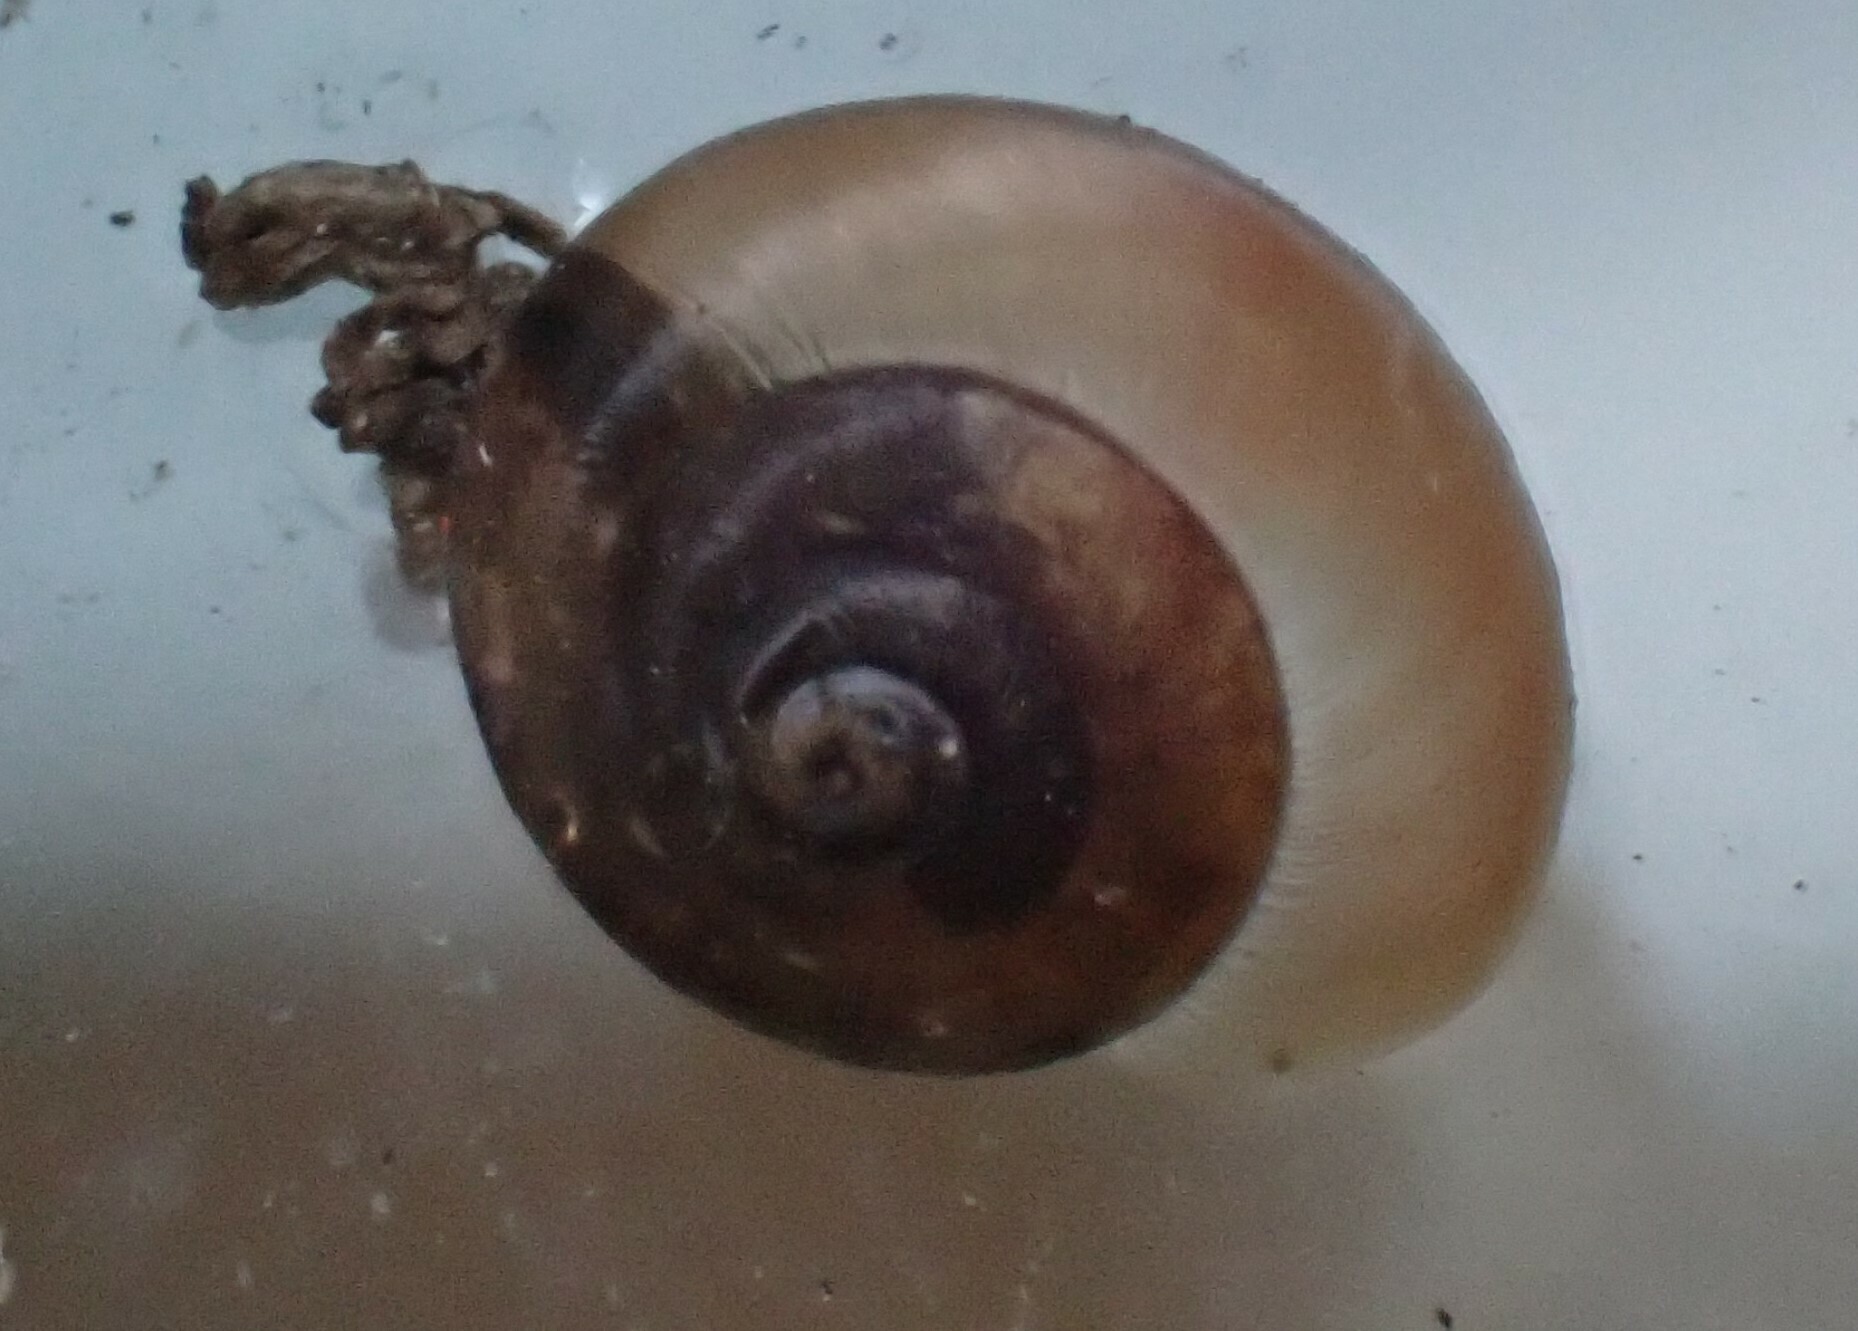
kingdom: Animalia
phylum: Mollusca
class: Gastropoda
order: Stylommatophora
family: Hygromiidae
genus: Hygromia
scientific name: Hygromia cinctella
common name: Girdled snail
